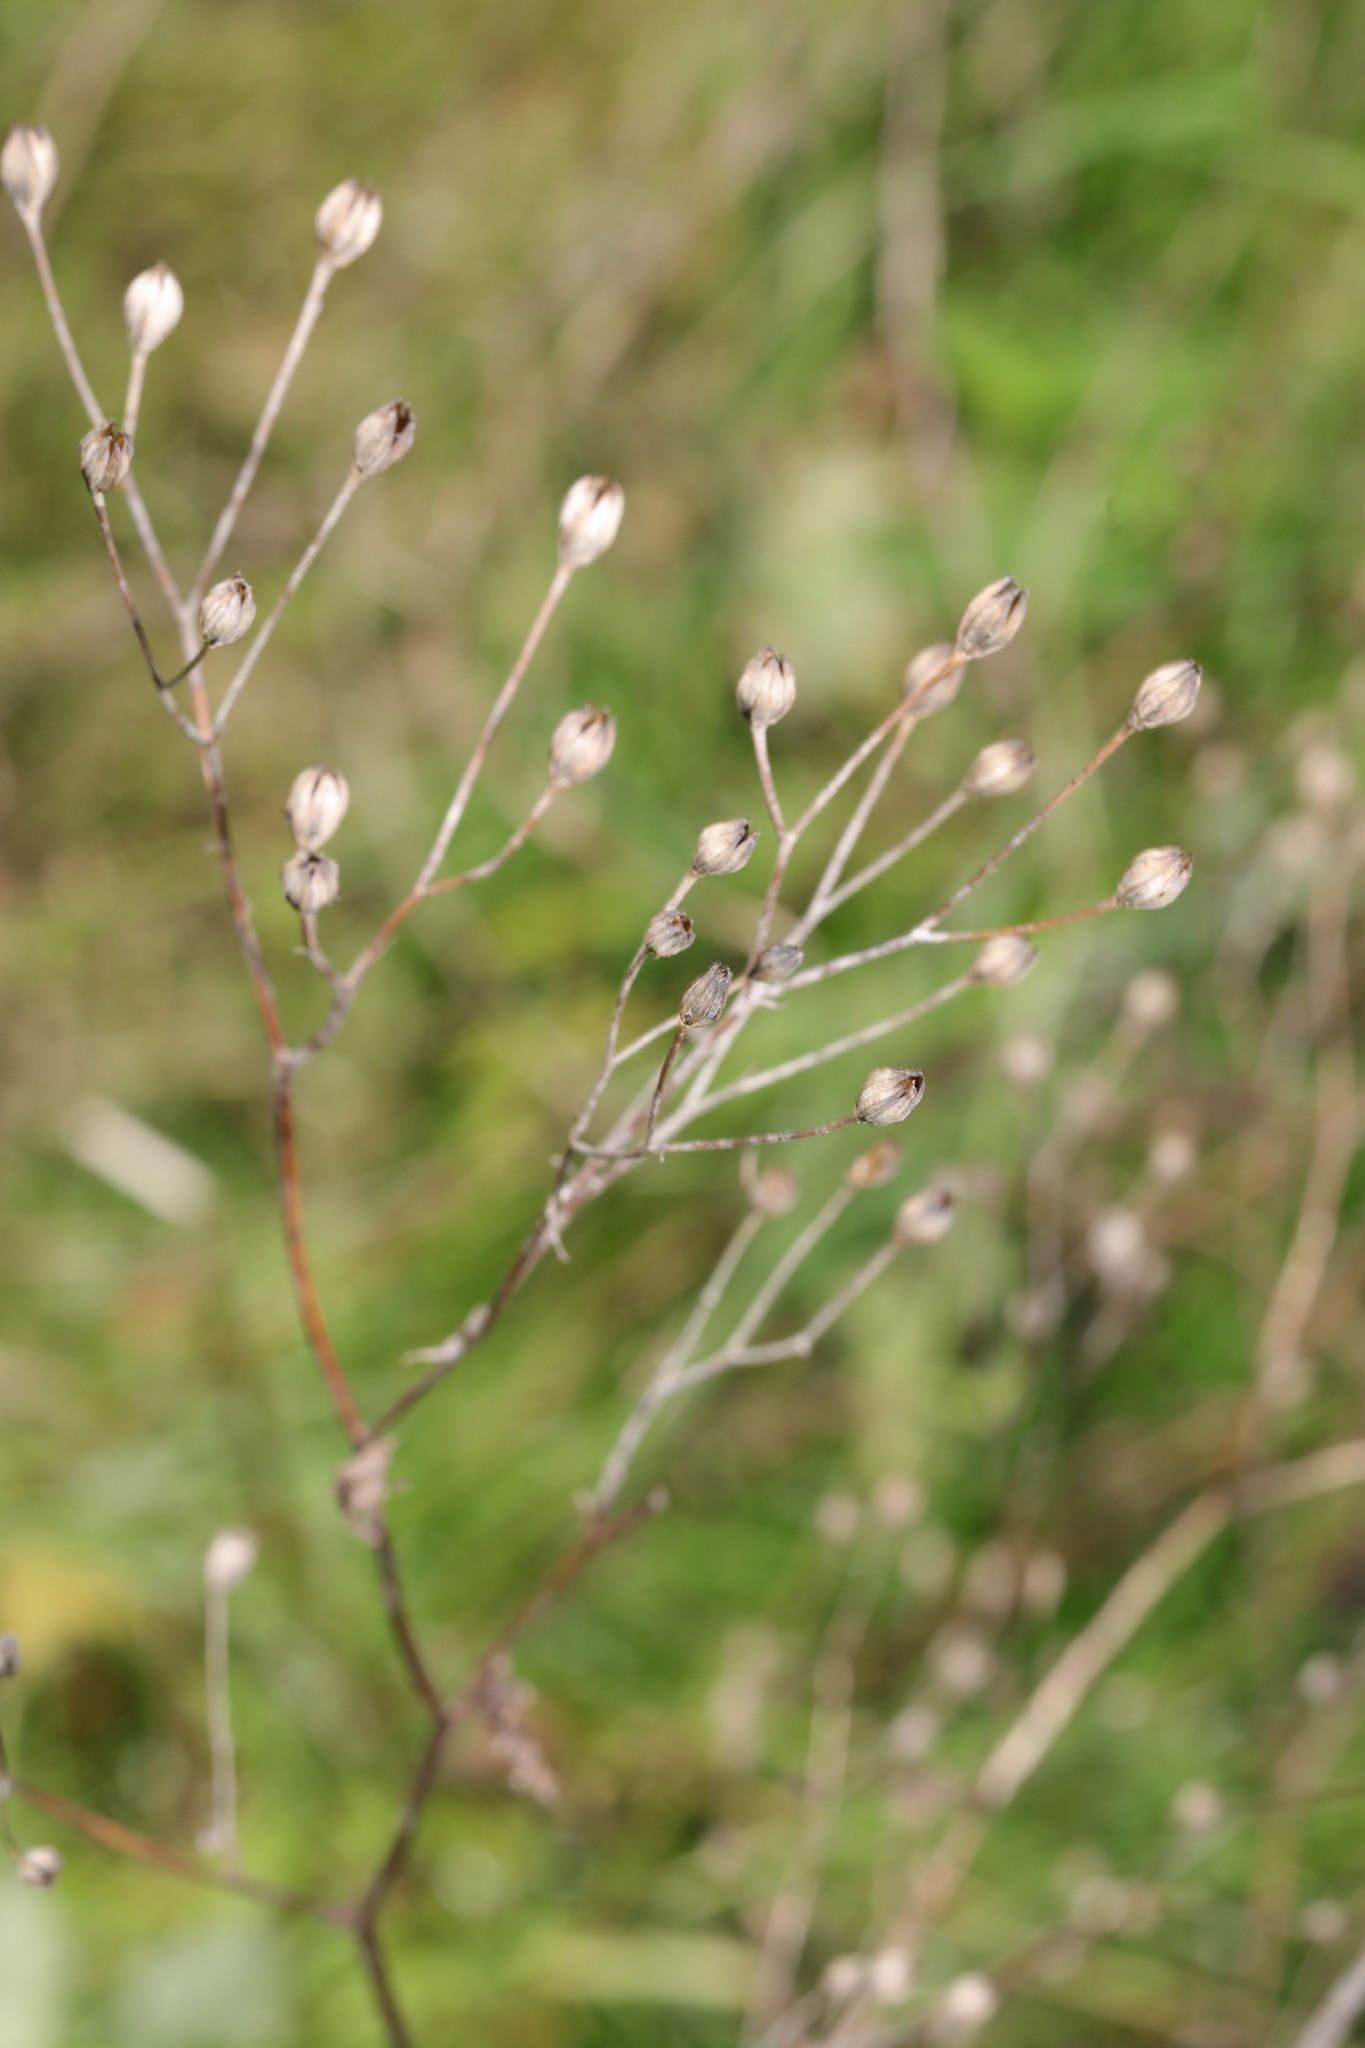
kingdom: Plantae
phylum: Tracheophyta
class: Magnoliopsida
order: Asterales
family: Asteraceae
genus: Lapsana
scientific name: Lapsana communis
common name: Nipplewort
